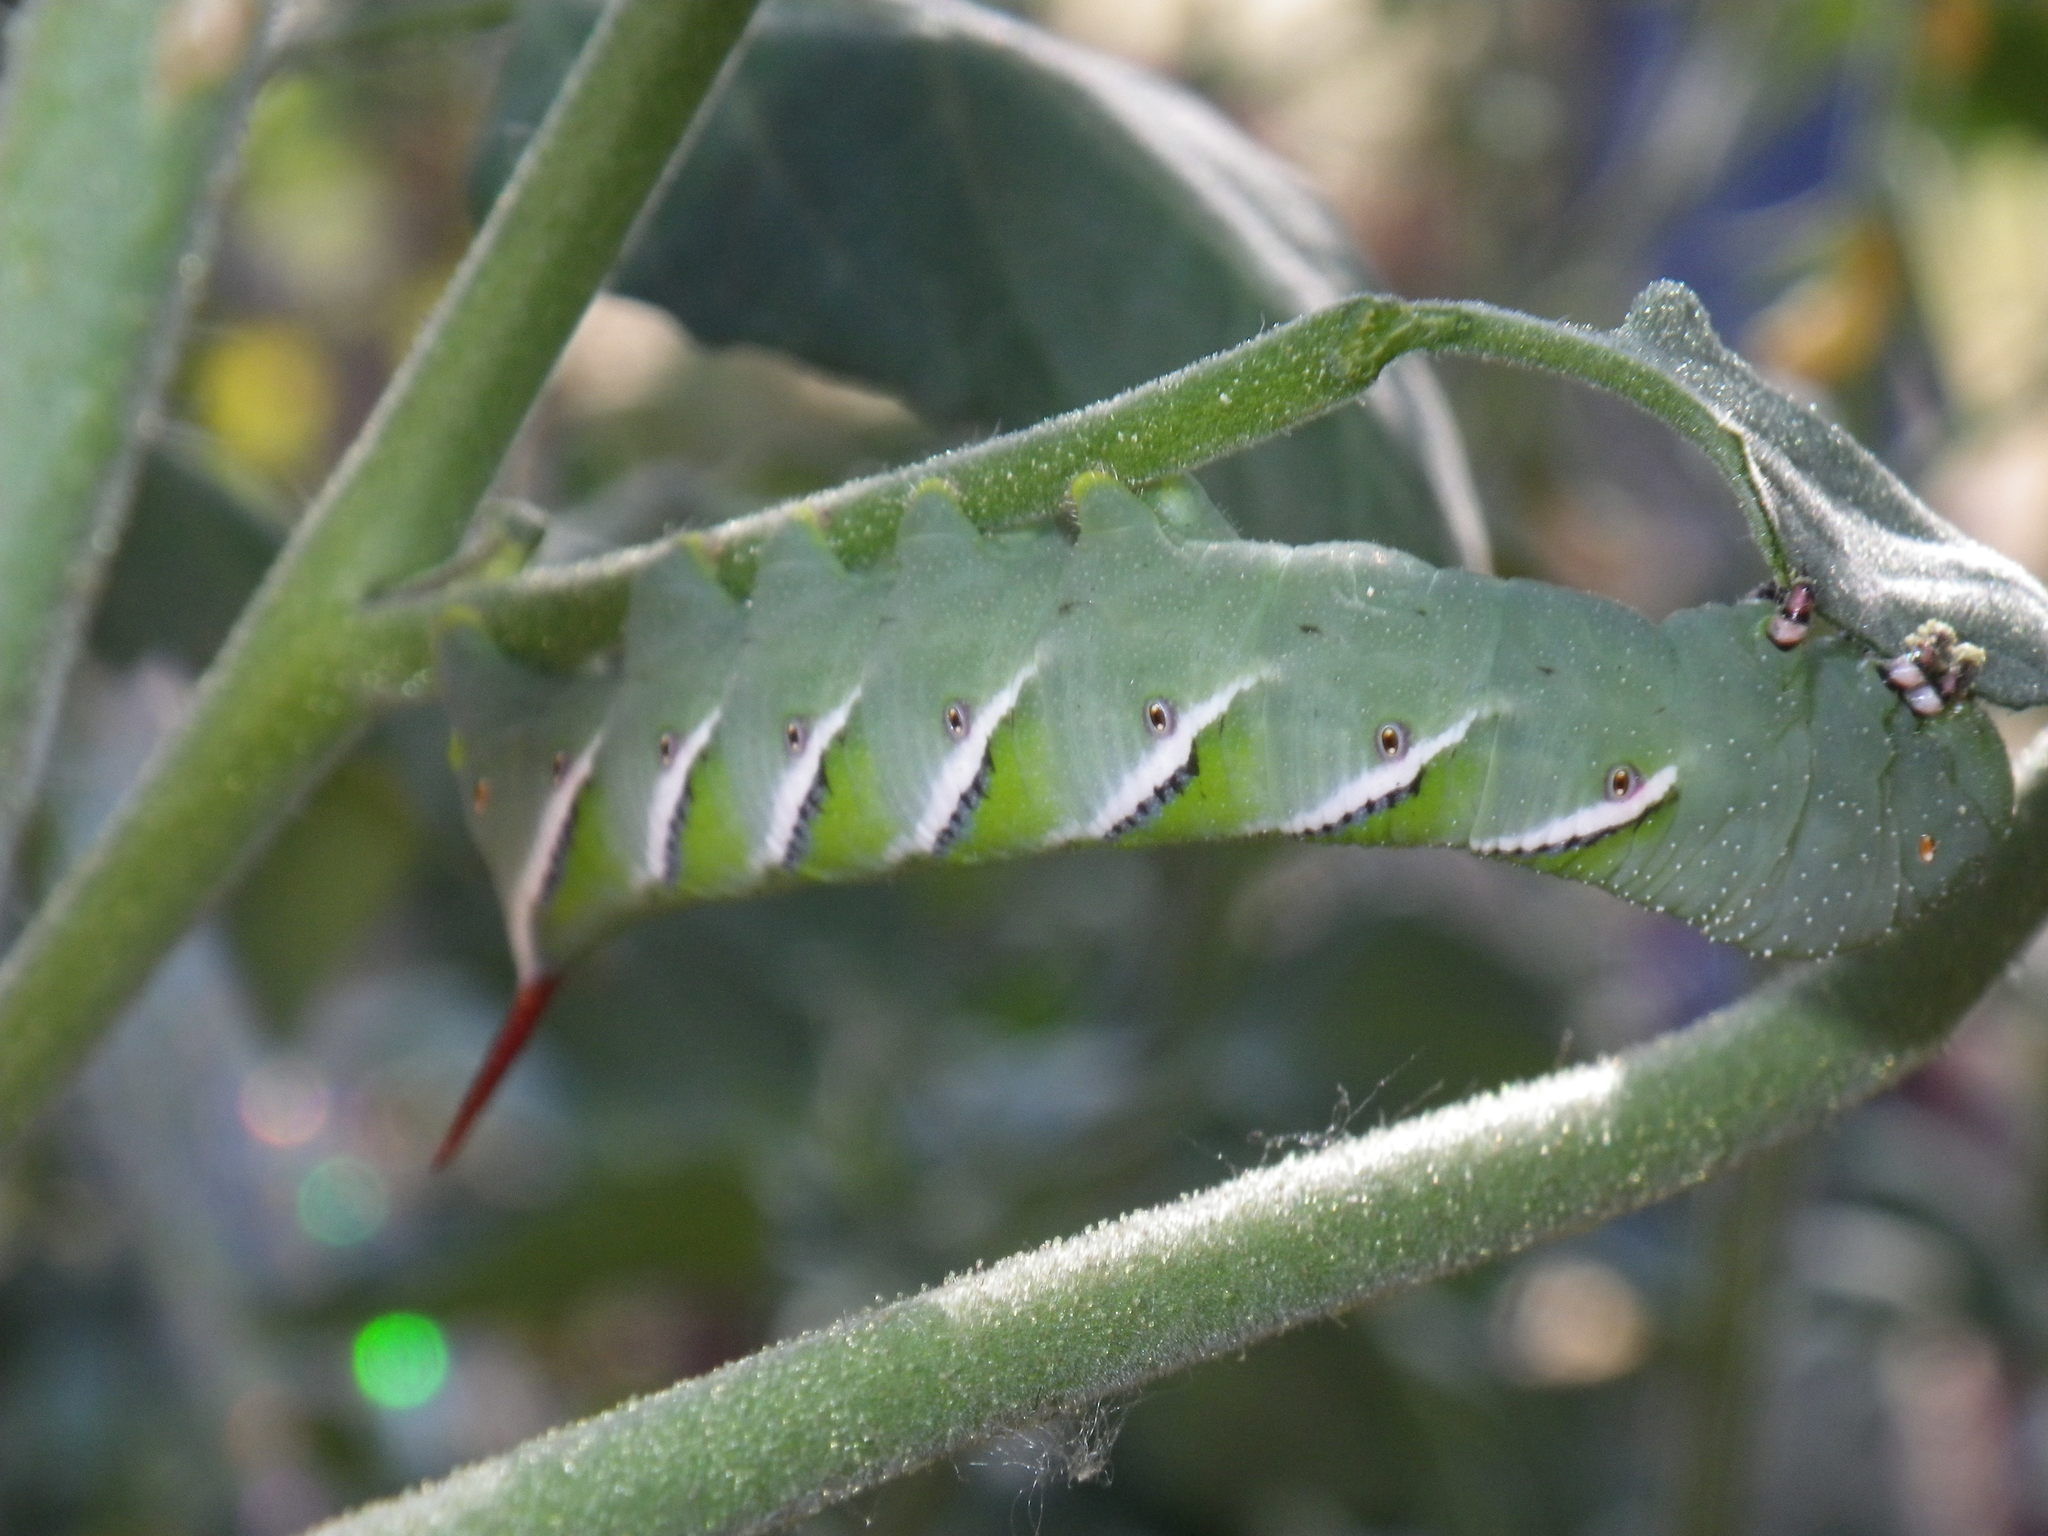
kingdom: Animalia
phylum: Arthropoda
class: Insecta
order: Lepidoptera
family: Sphingidae
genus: Manduca
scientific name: Manduca sexta
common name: Carolina sphinx
